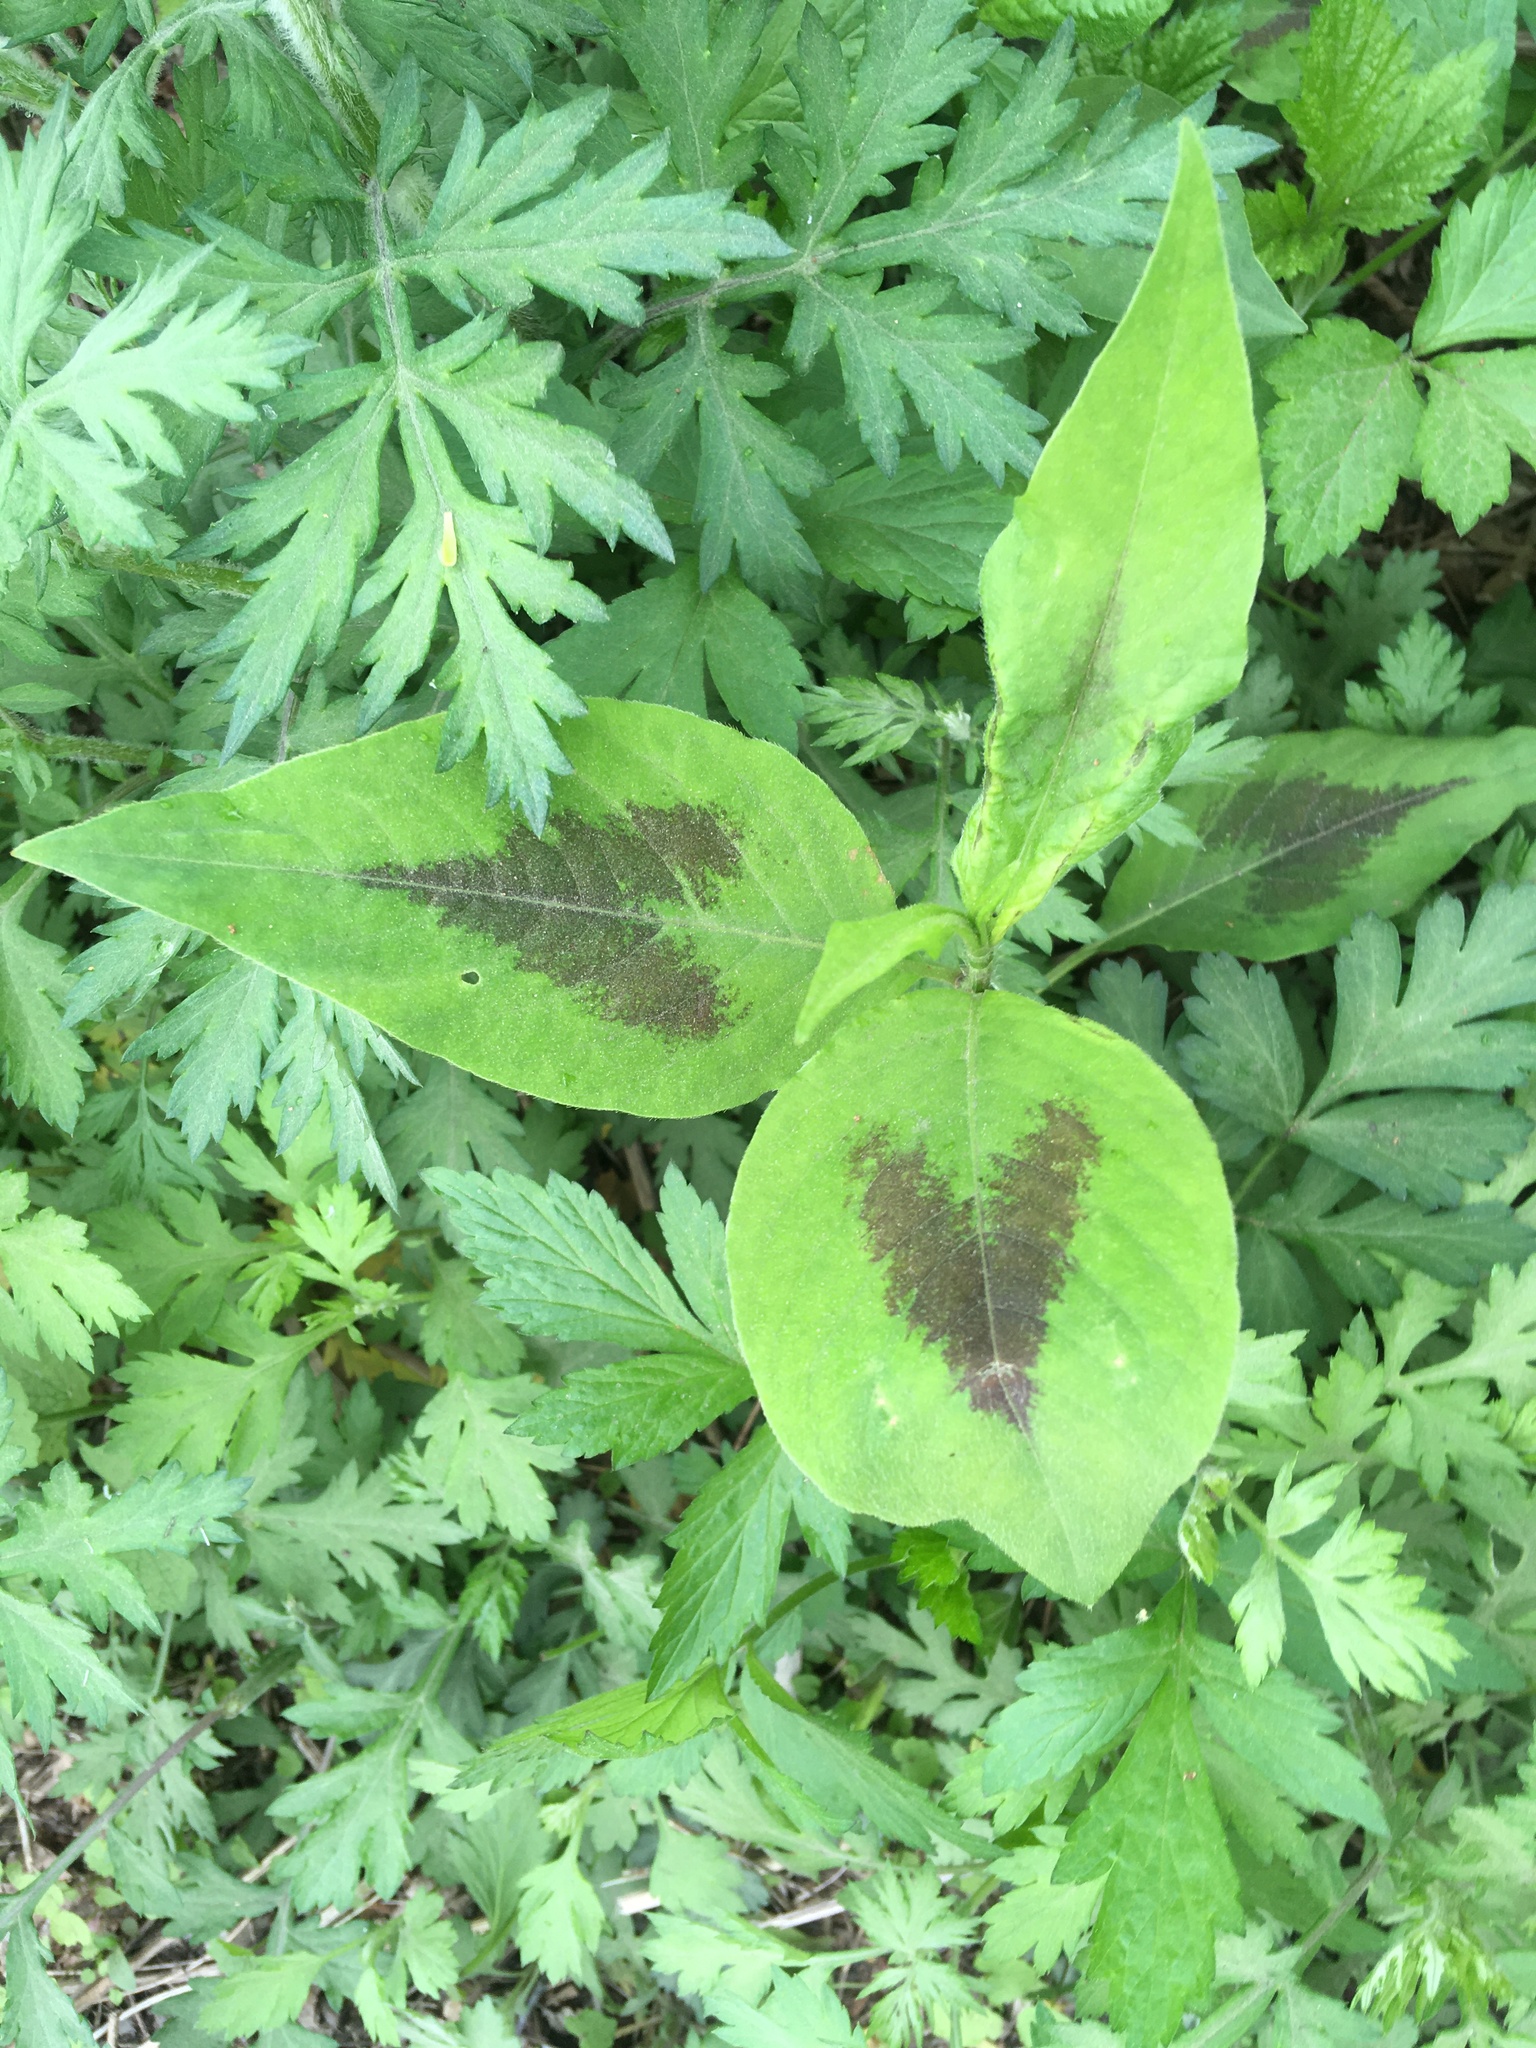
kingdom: Plantae
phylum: Tracheophyta
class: Magnoliopsida
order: Caryophyllales
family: Polygonaceae
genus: Persicaria
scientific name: Persicaria virginiana
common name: Jumpseed
